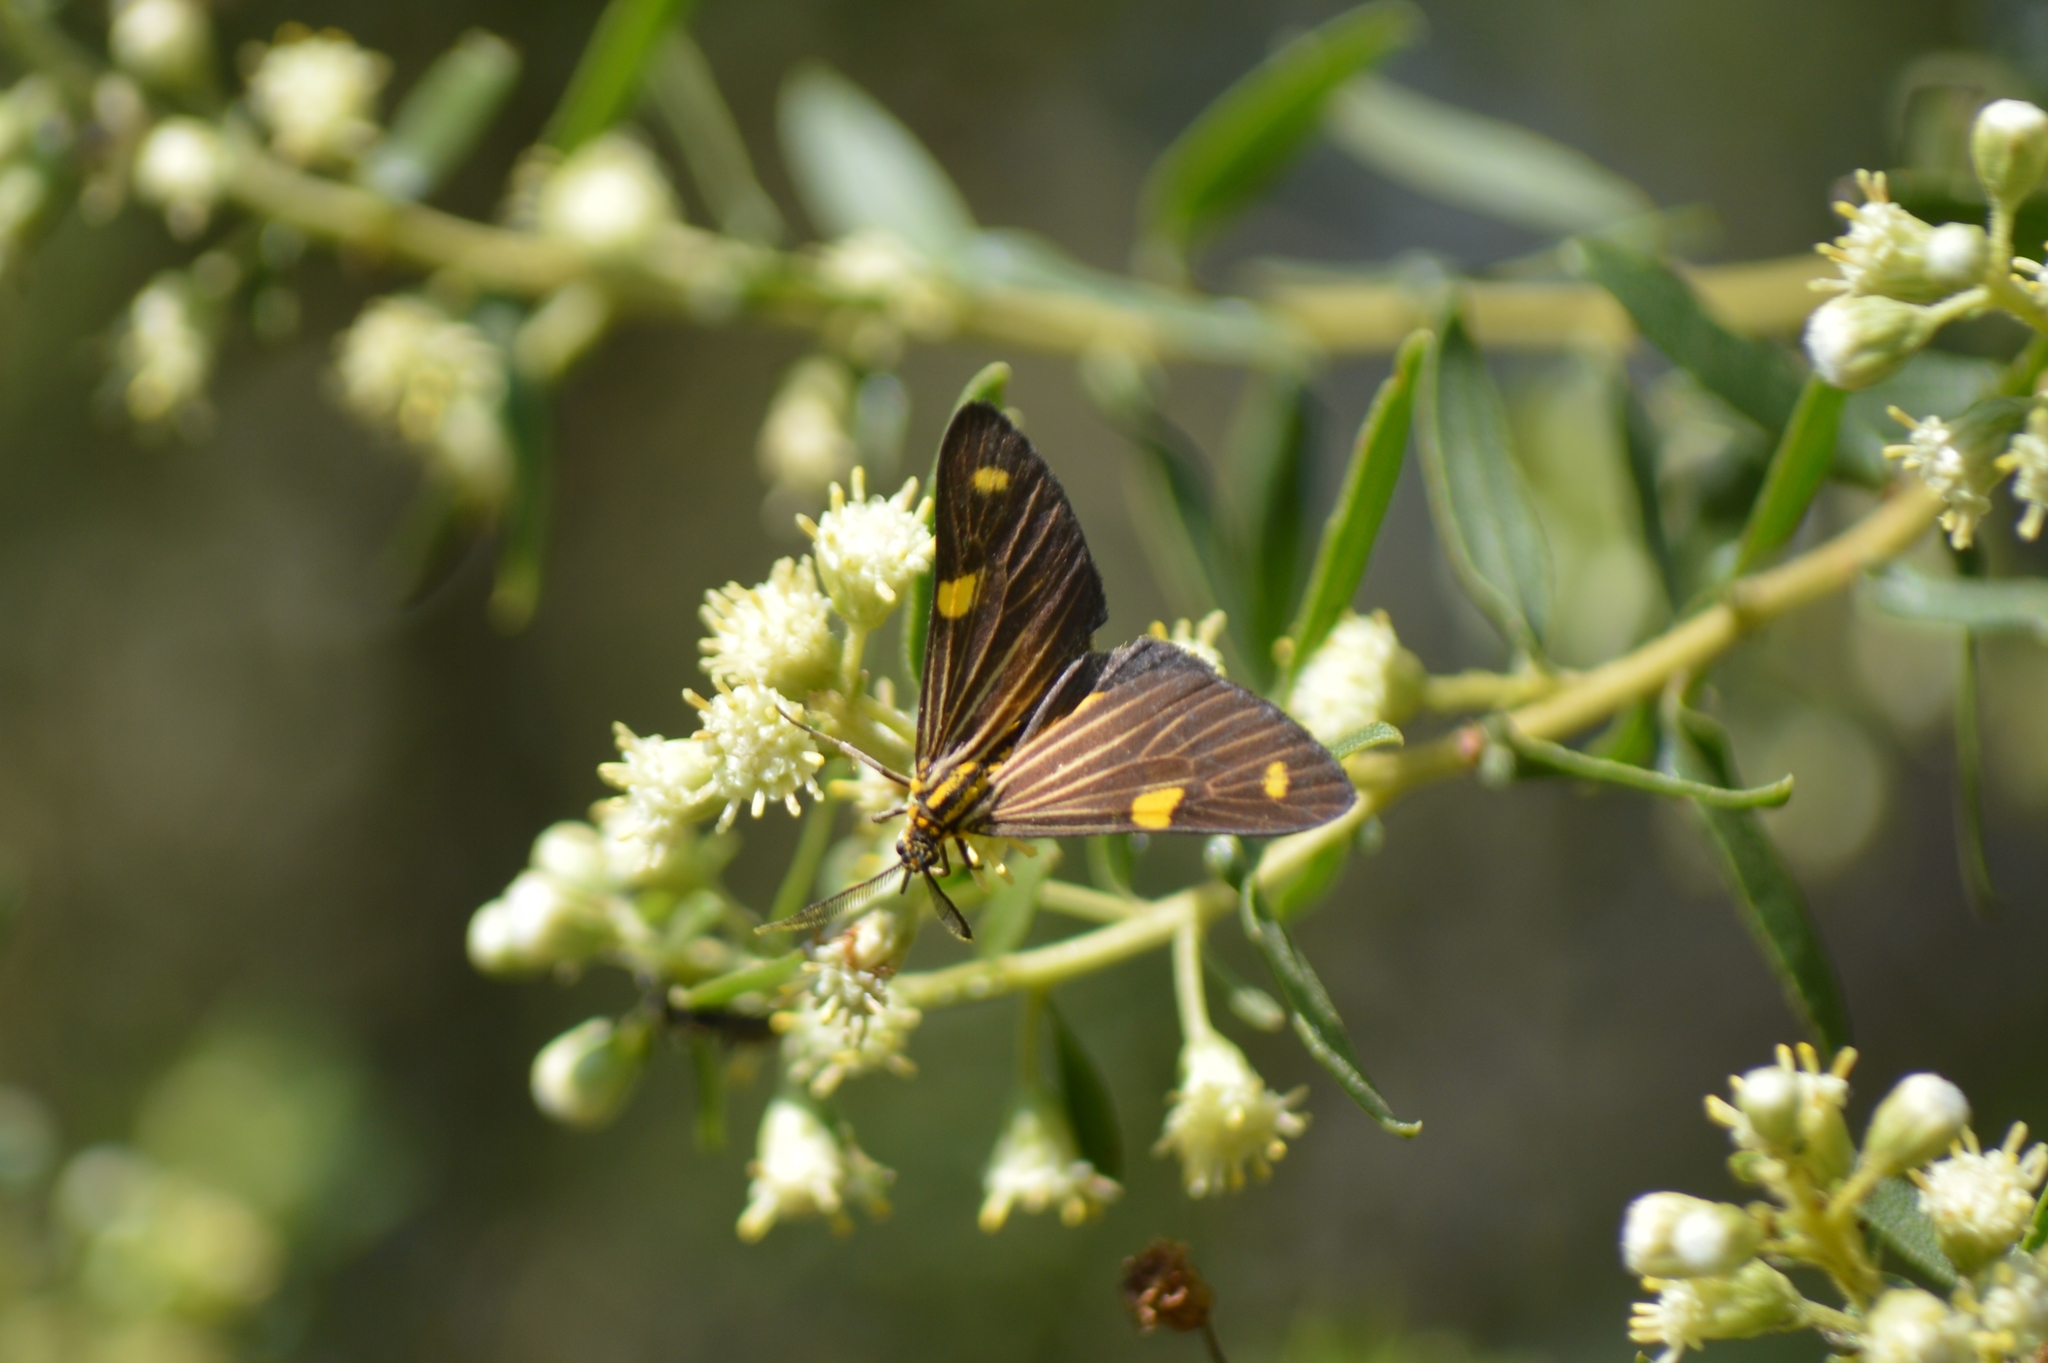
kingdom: Animalia
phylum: Arthropoda
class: Insecta
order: Lepidoptera
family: Notodontidae
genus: Phaeochlaena
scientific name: Phaeochlaena
